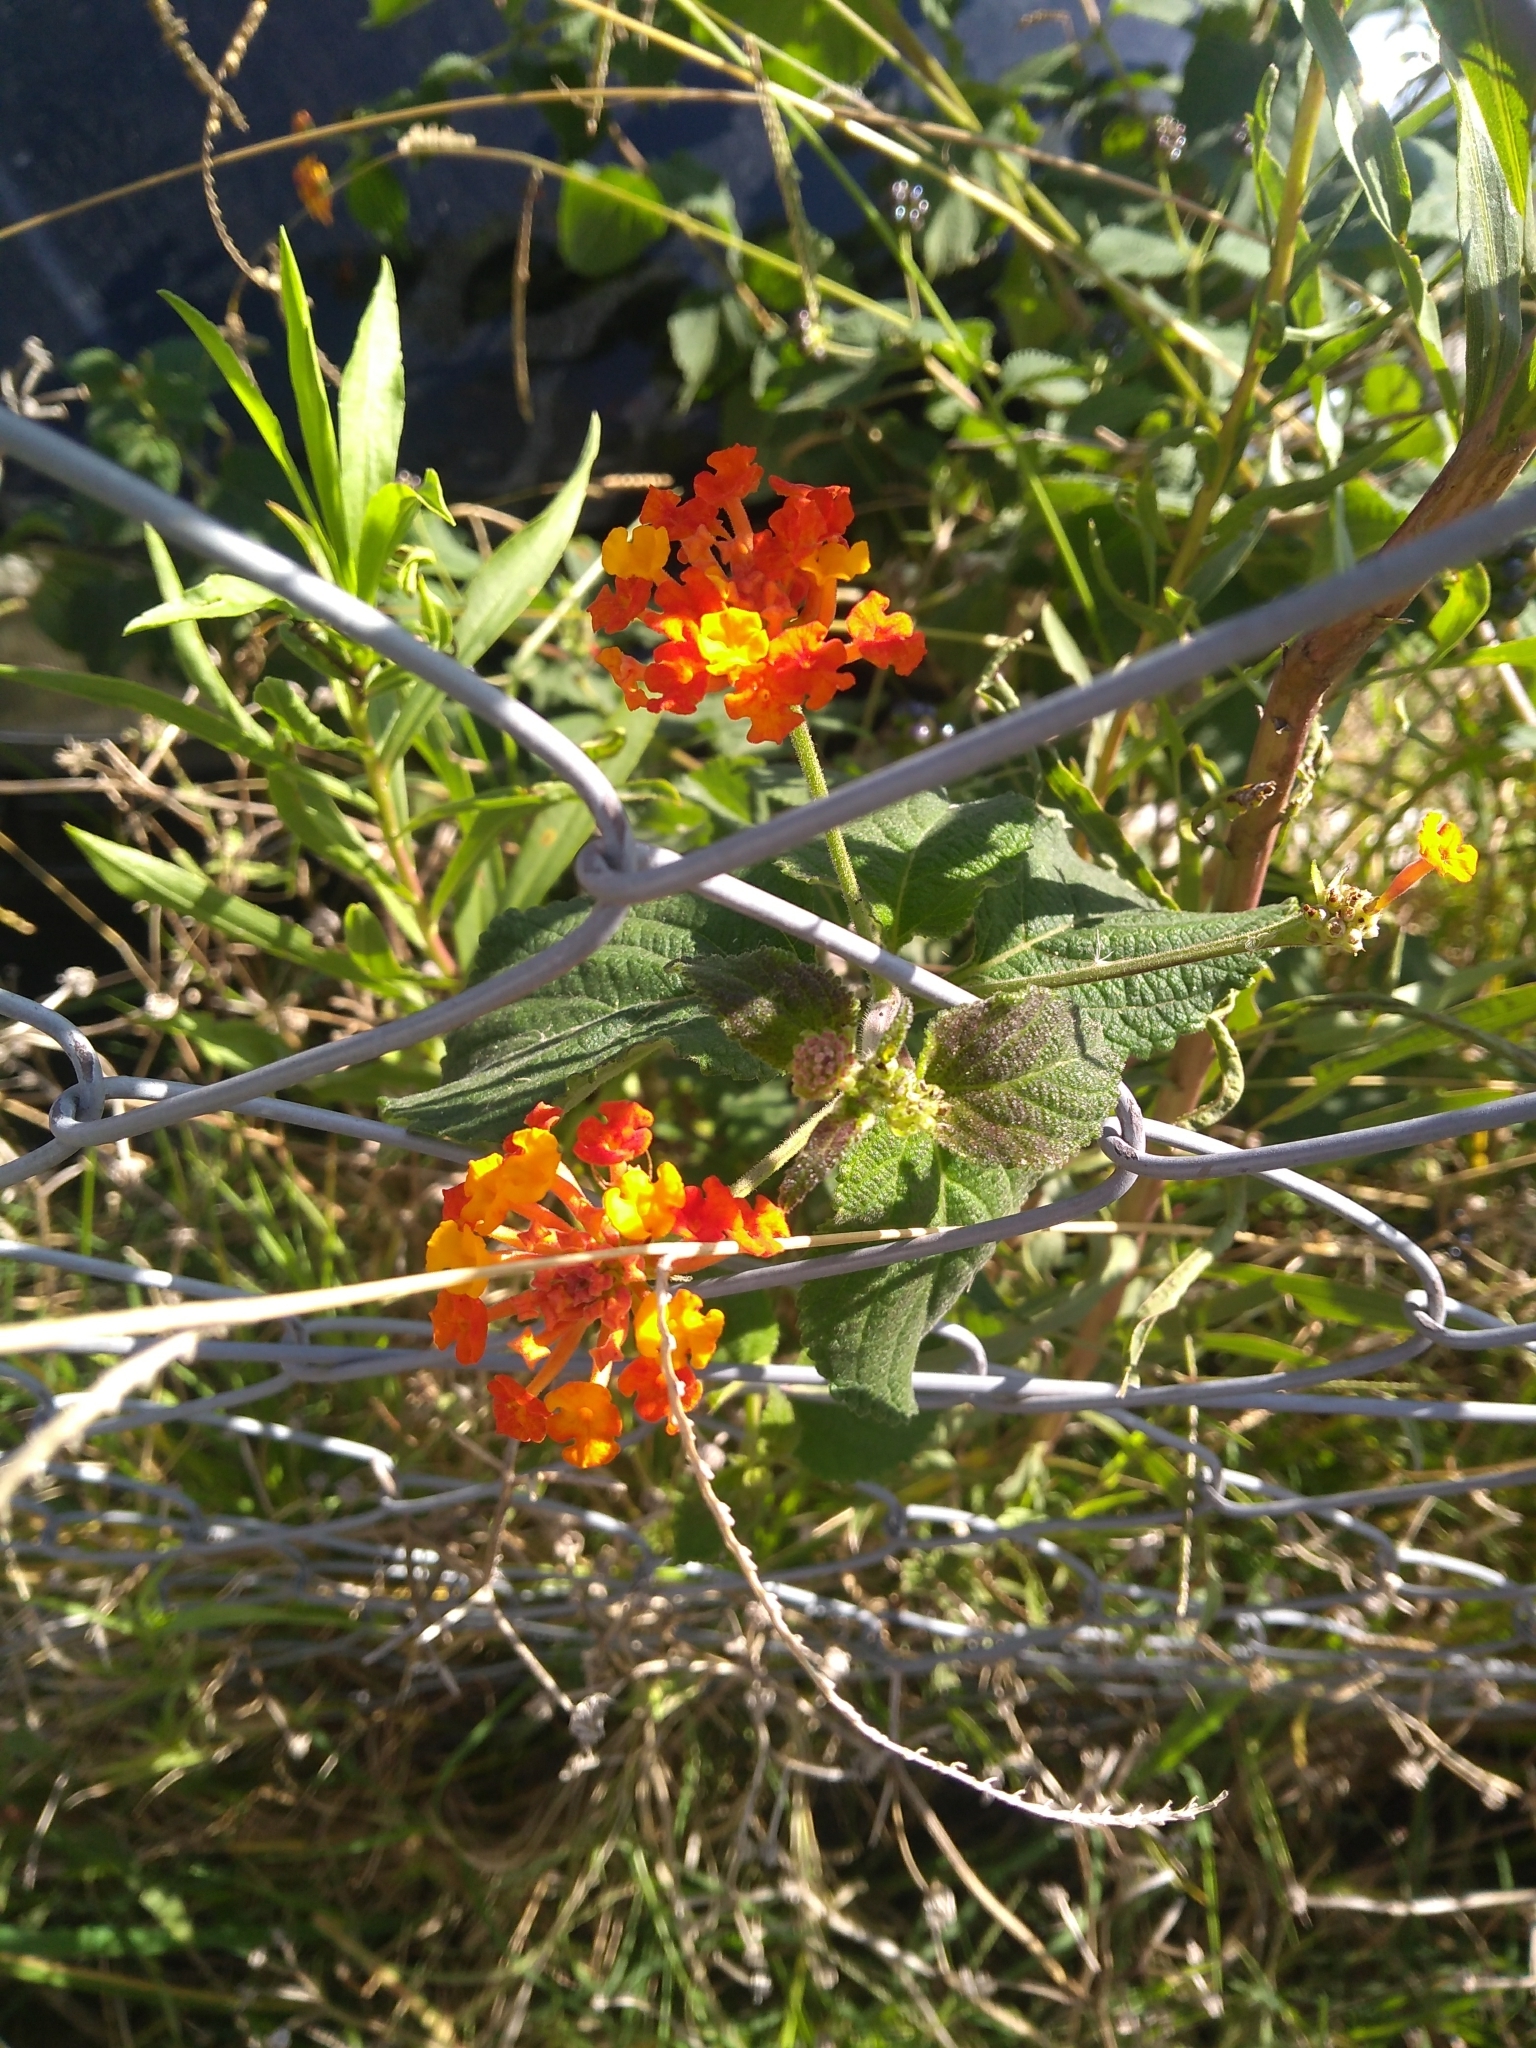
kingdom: Plantae
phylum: Tracheophyta
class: Magnoliopsida
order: Lamiales
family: Verbenaceae
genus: Lantana
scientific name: Lantana camara
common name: Lantana
